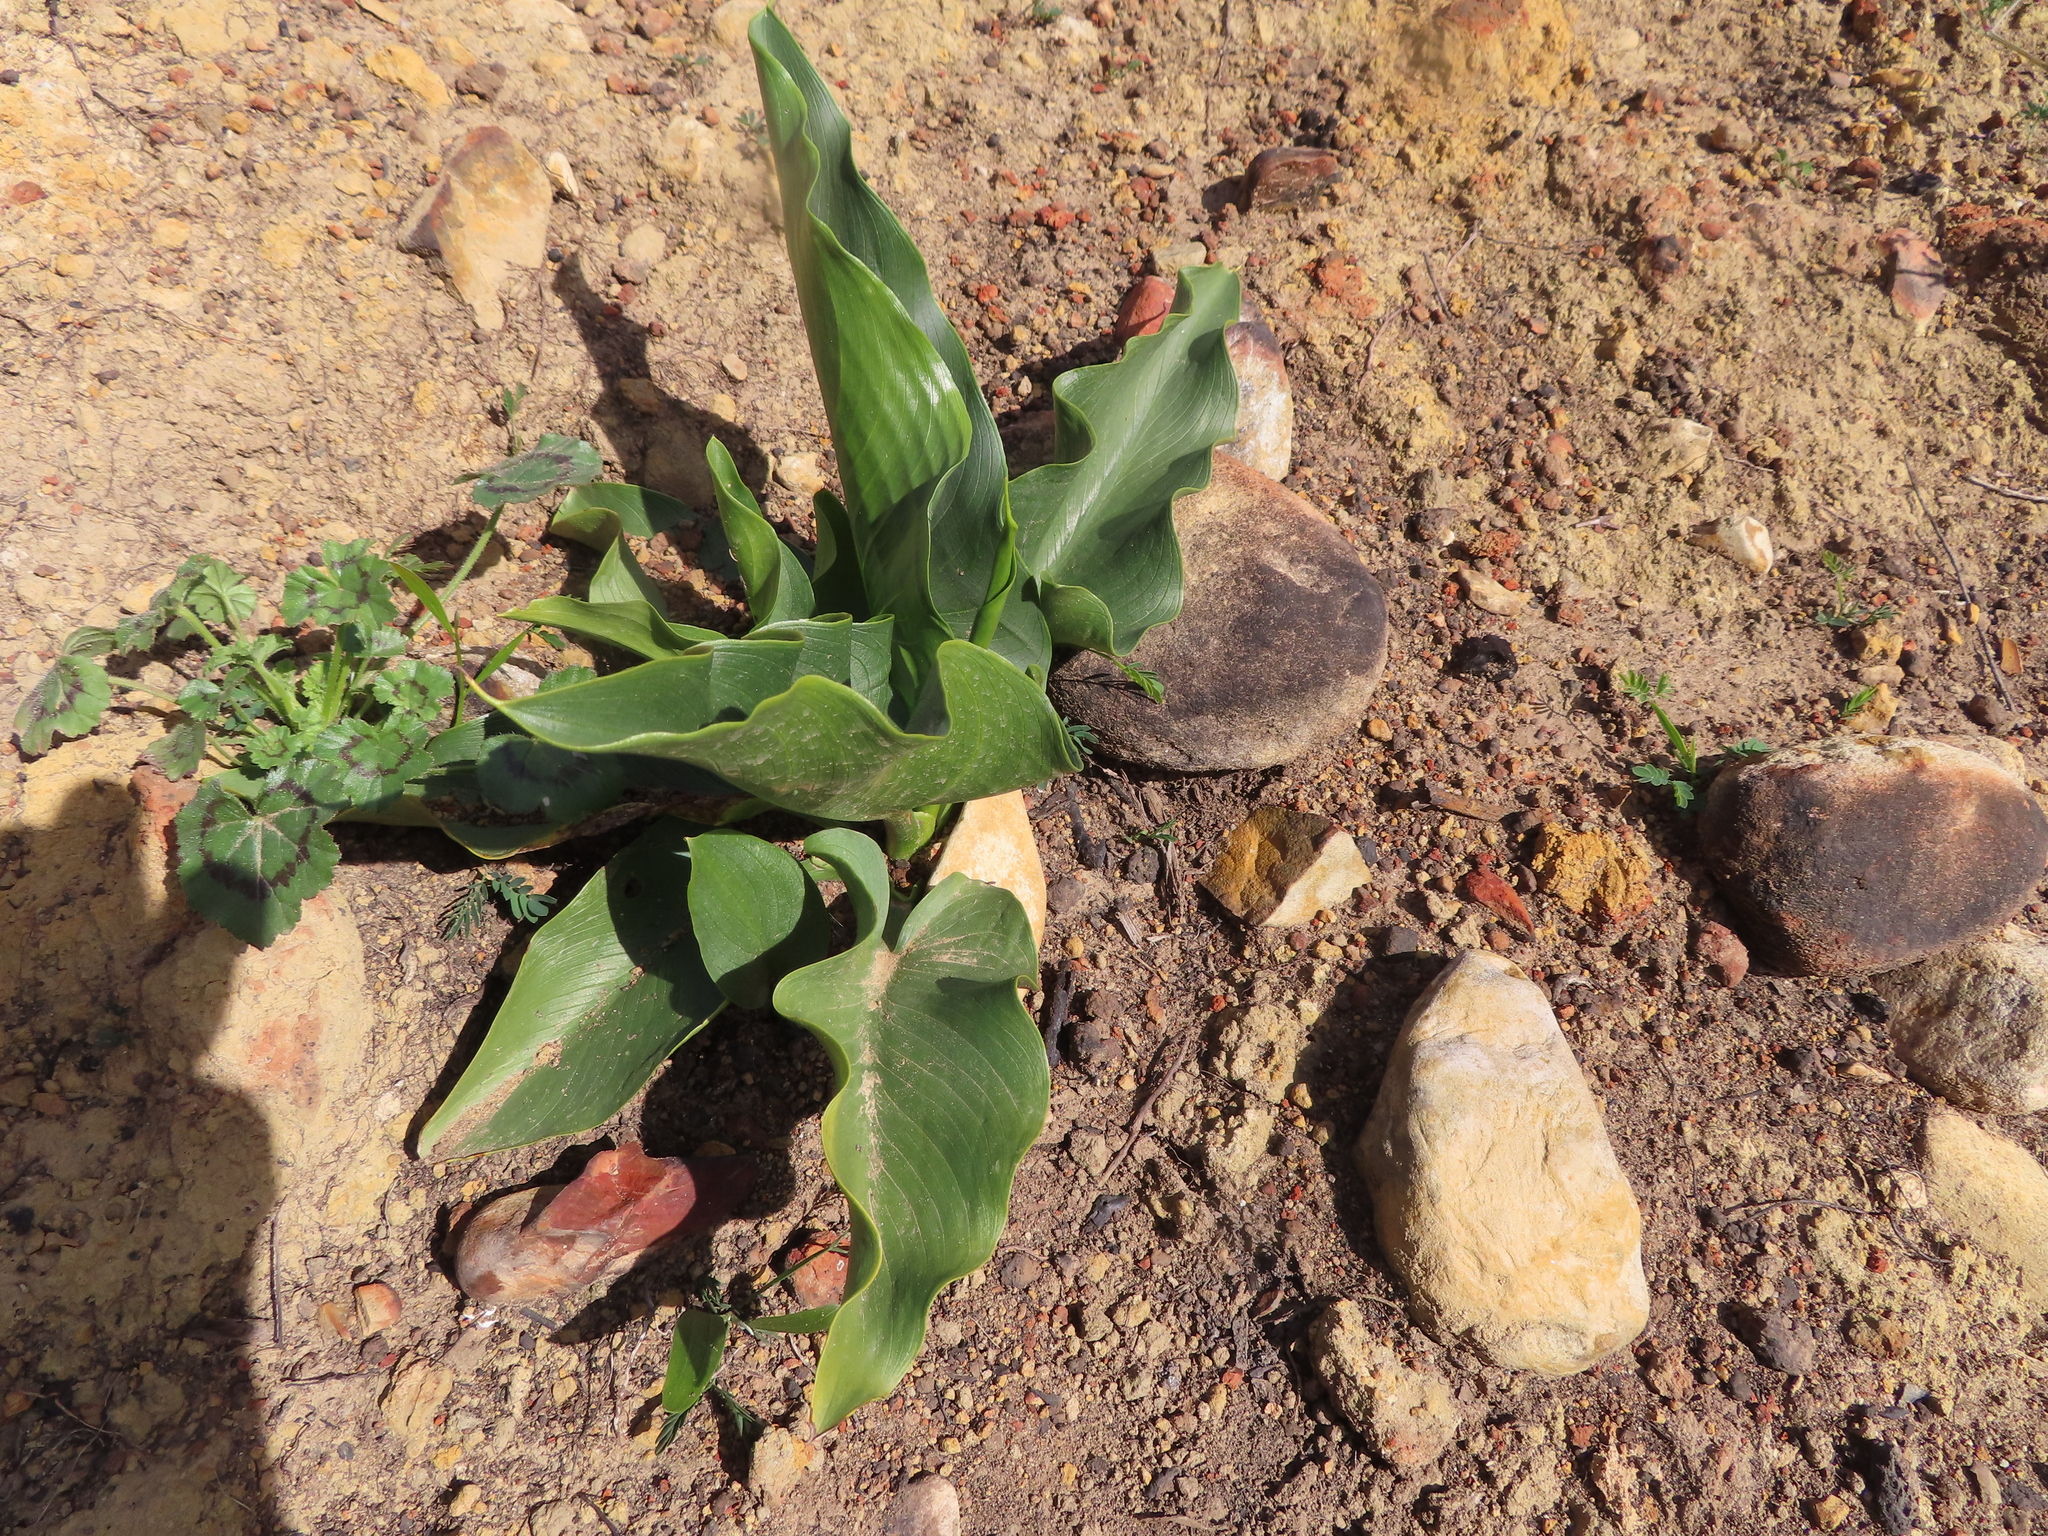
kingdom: Plantae
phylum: Tracheophyta
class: Liliopsida
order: Alismatales
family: Araceae
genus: Zantedeschia
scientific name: Zantedeschia aethiopica
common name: Altar-lily
